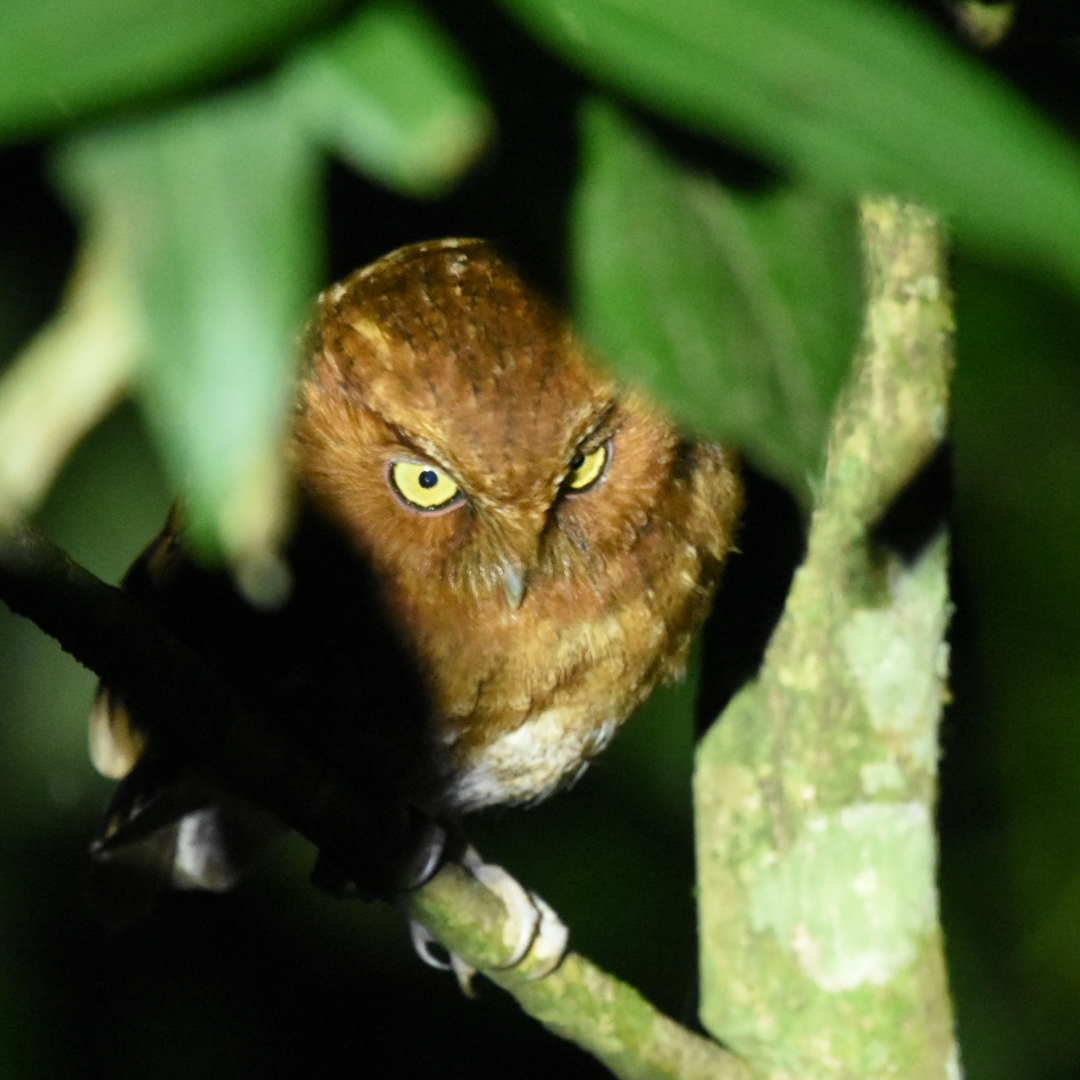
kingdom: Animalia
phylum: Chordata
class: Aves
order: Strigiformes
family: Strigidae
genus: Megascops
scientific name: Megascops gilesi
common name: Santa marta screech owl
